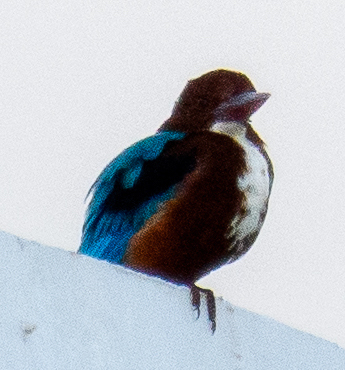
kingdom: Animalia
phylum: Chordata
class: Aves
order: Coraciiformes
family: Alcedinidae
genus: Halcyon
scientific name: Halcyon smyrnensis
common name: White-throated kingfisher
